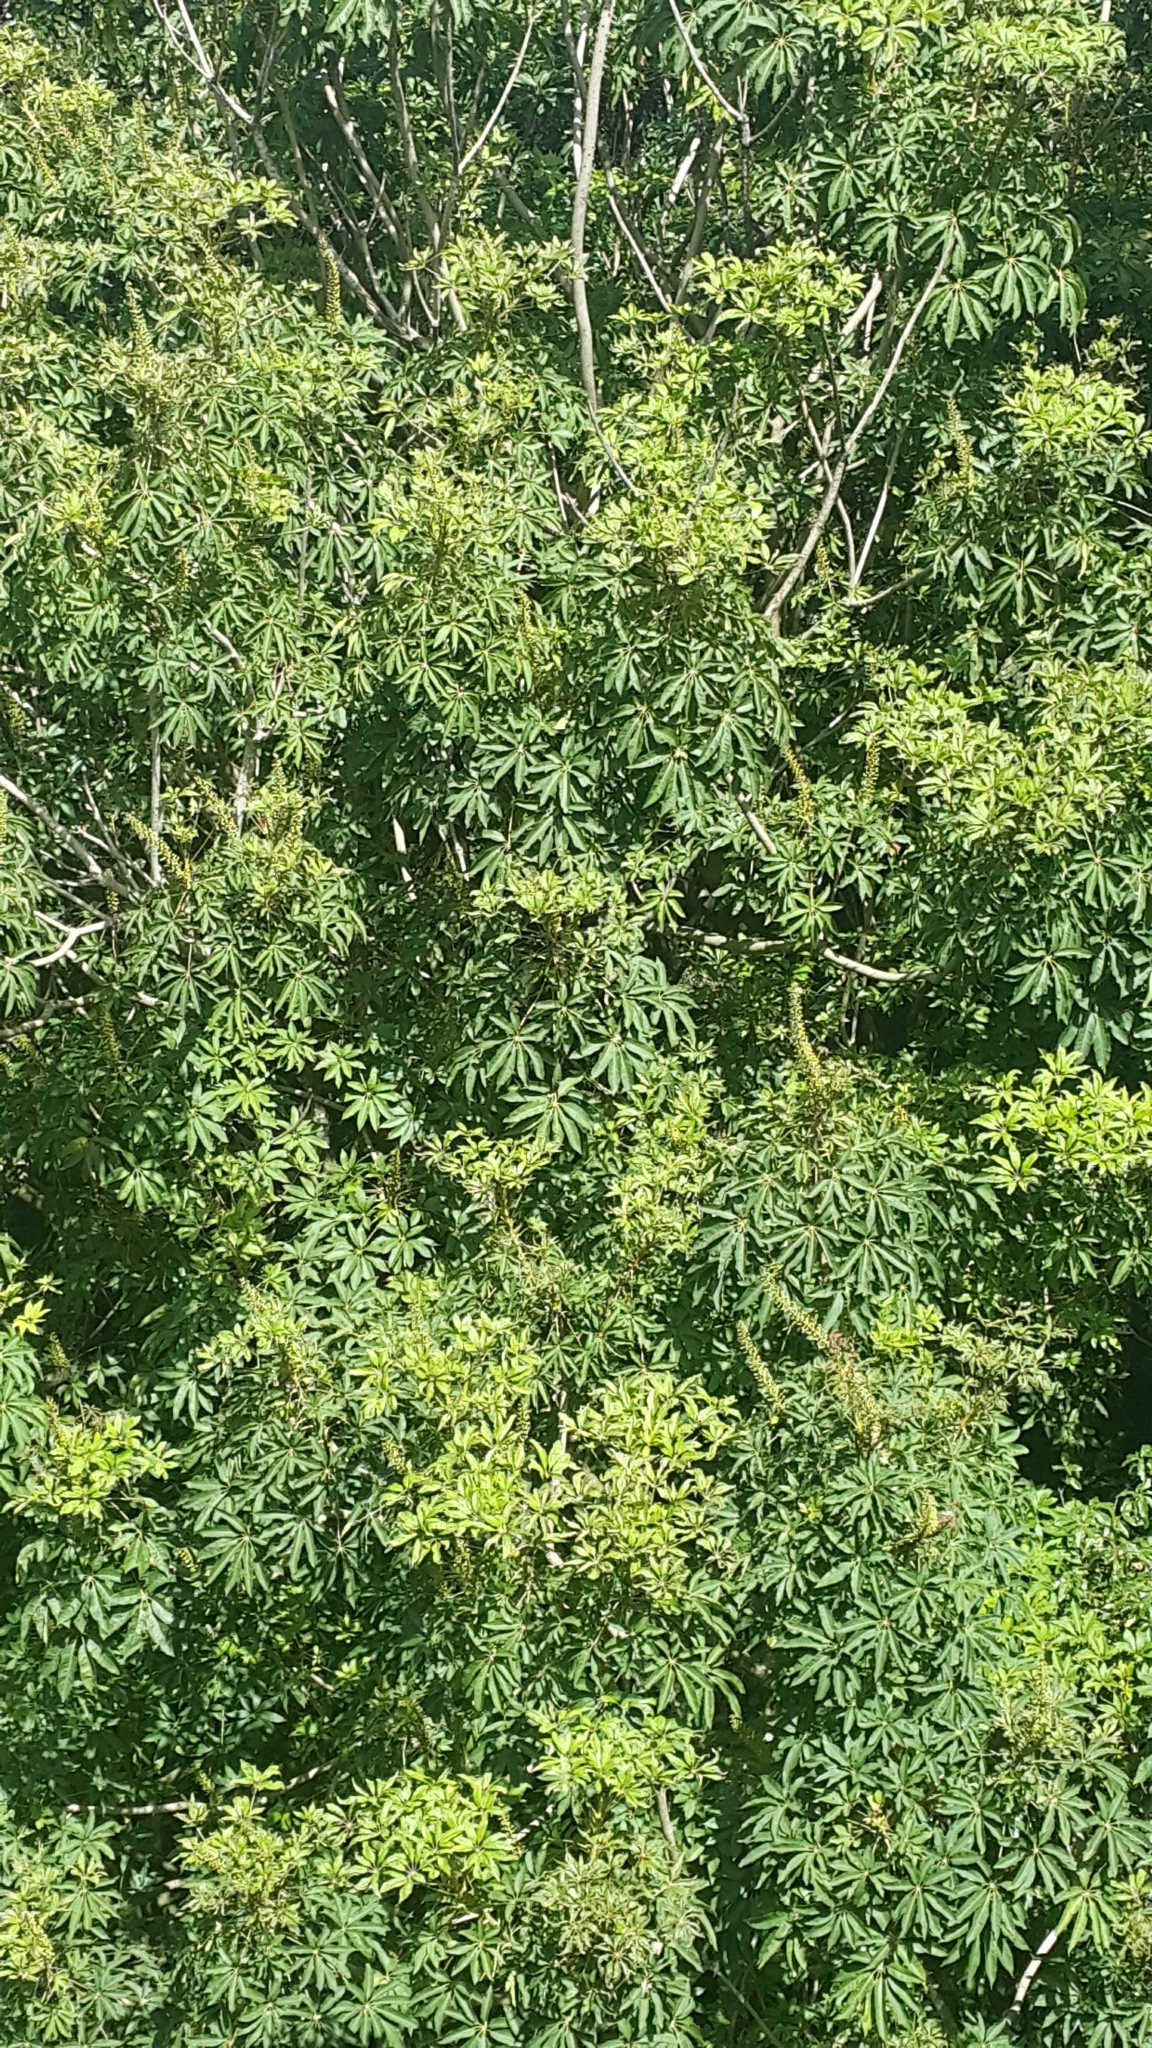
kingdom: Plantae
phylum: Tracheophyta
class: Magnoliopsida
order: Apiales
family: Araliaceae
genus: Oreopanax
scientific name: Oreopanax xalapensis
